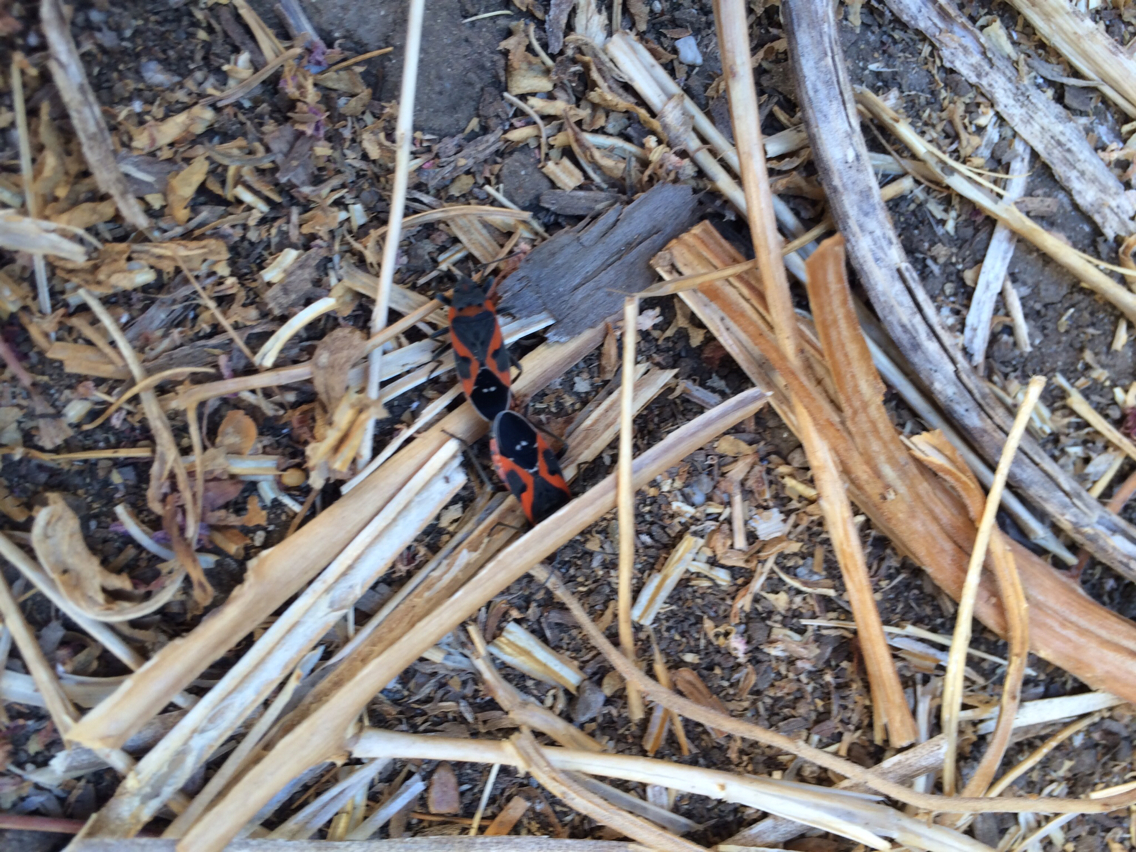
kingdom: Animalia
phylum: Arthropoda
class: Insecta
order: Hemiptera
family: Lygaeidae
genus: Lygaeus
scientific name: Lygaeus kalmii
